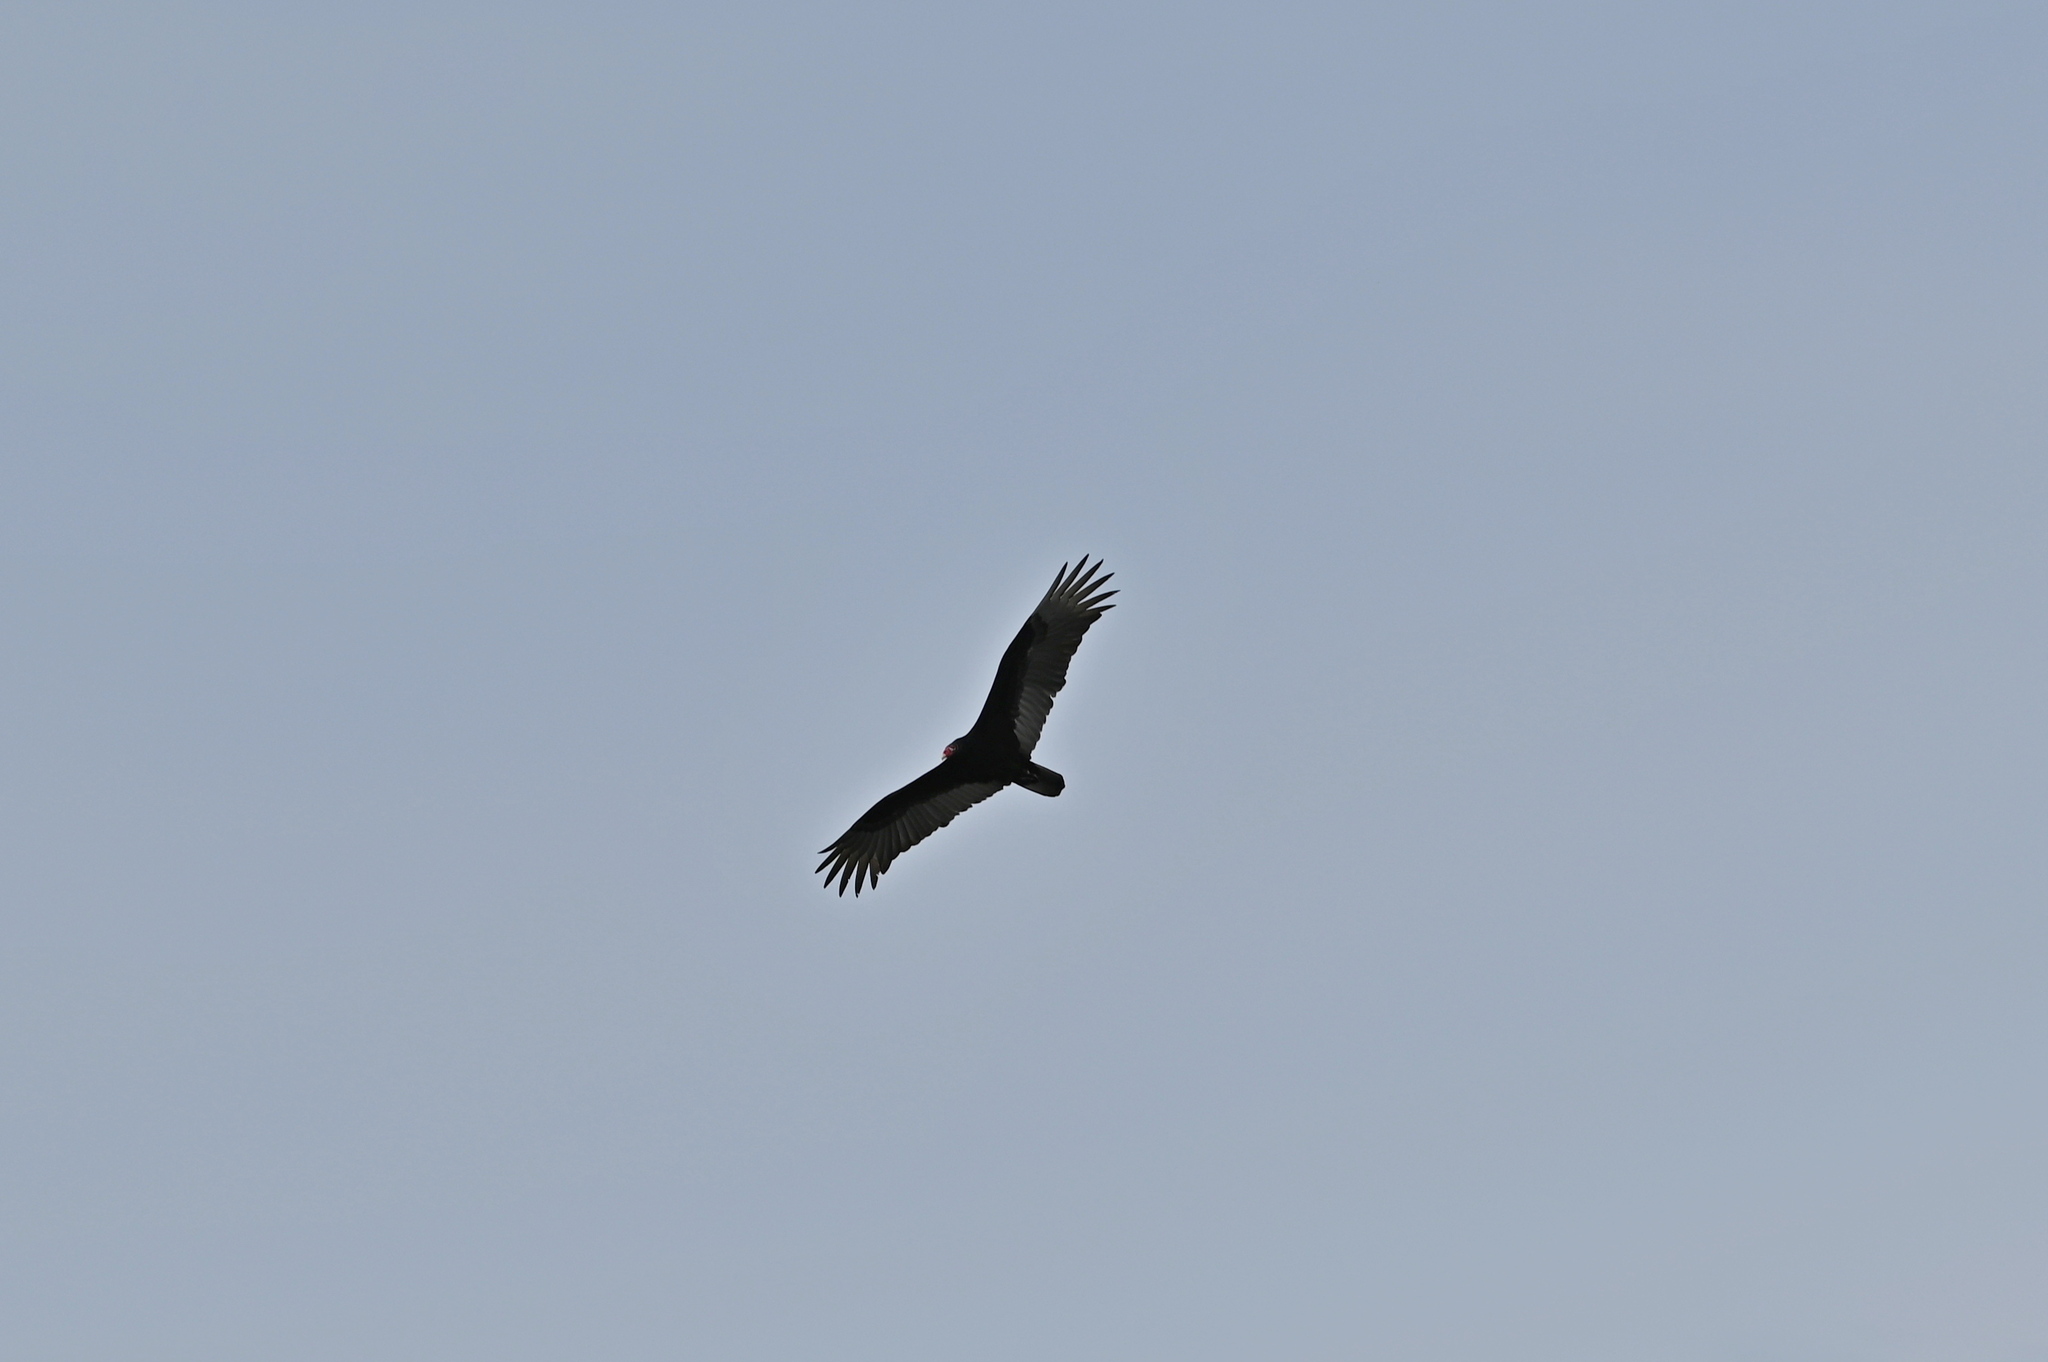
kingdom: Animalia
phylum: Chordata
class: Aves
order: Accipitriformes
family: Cathartidae
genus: Cathartes
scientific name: Cathartes aura
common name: Turkey vulture
